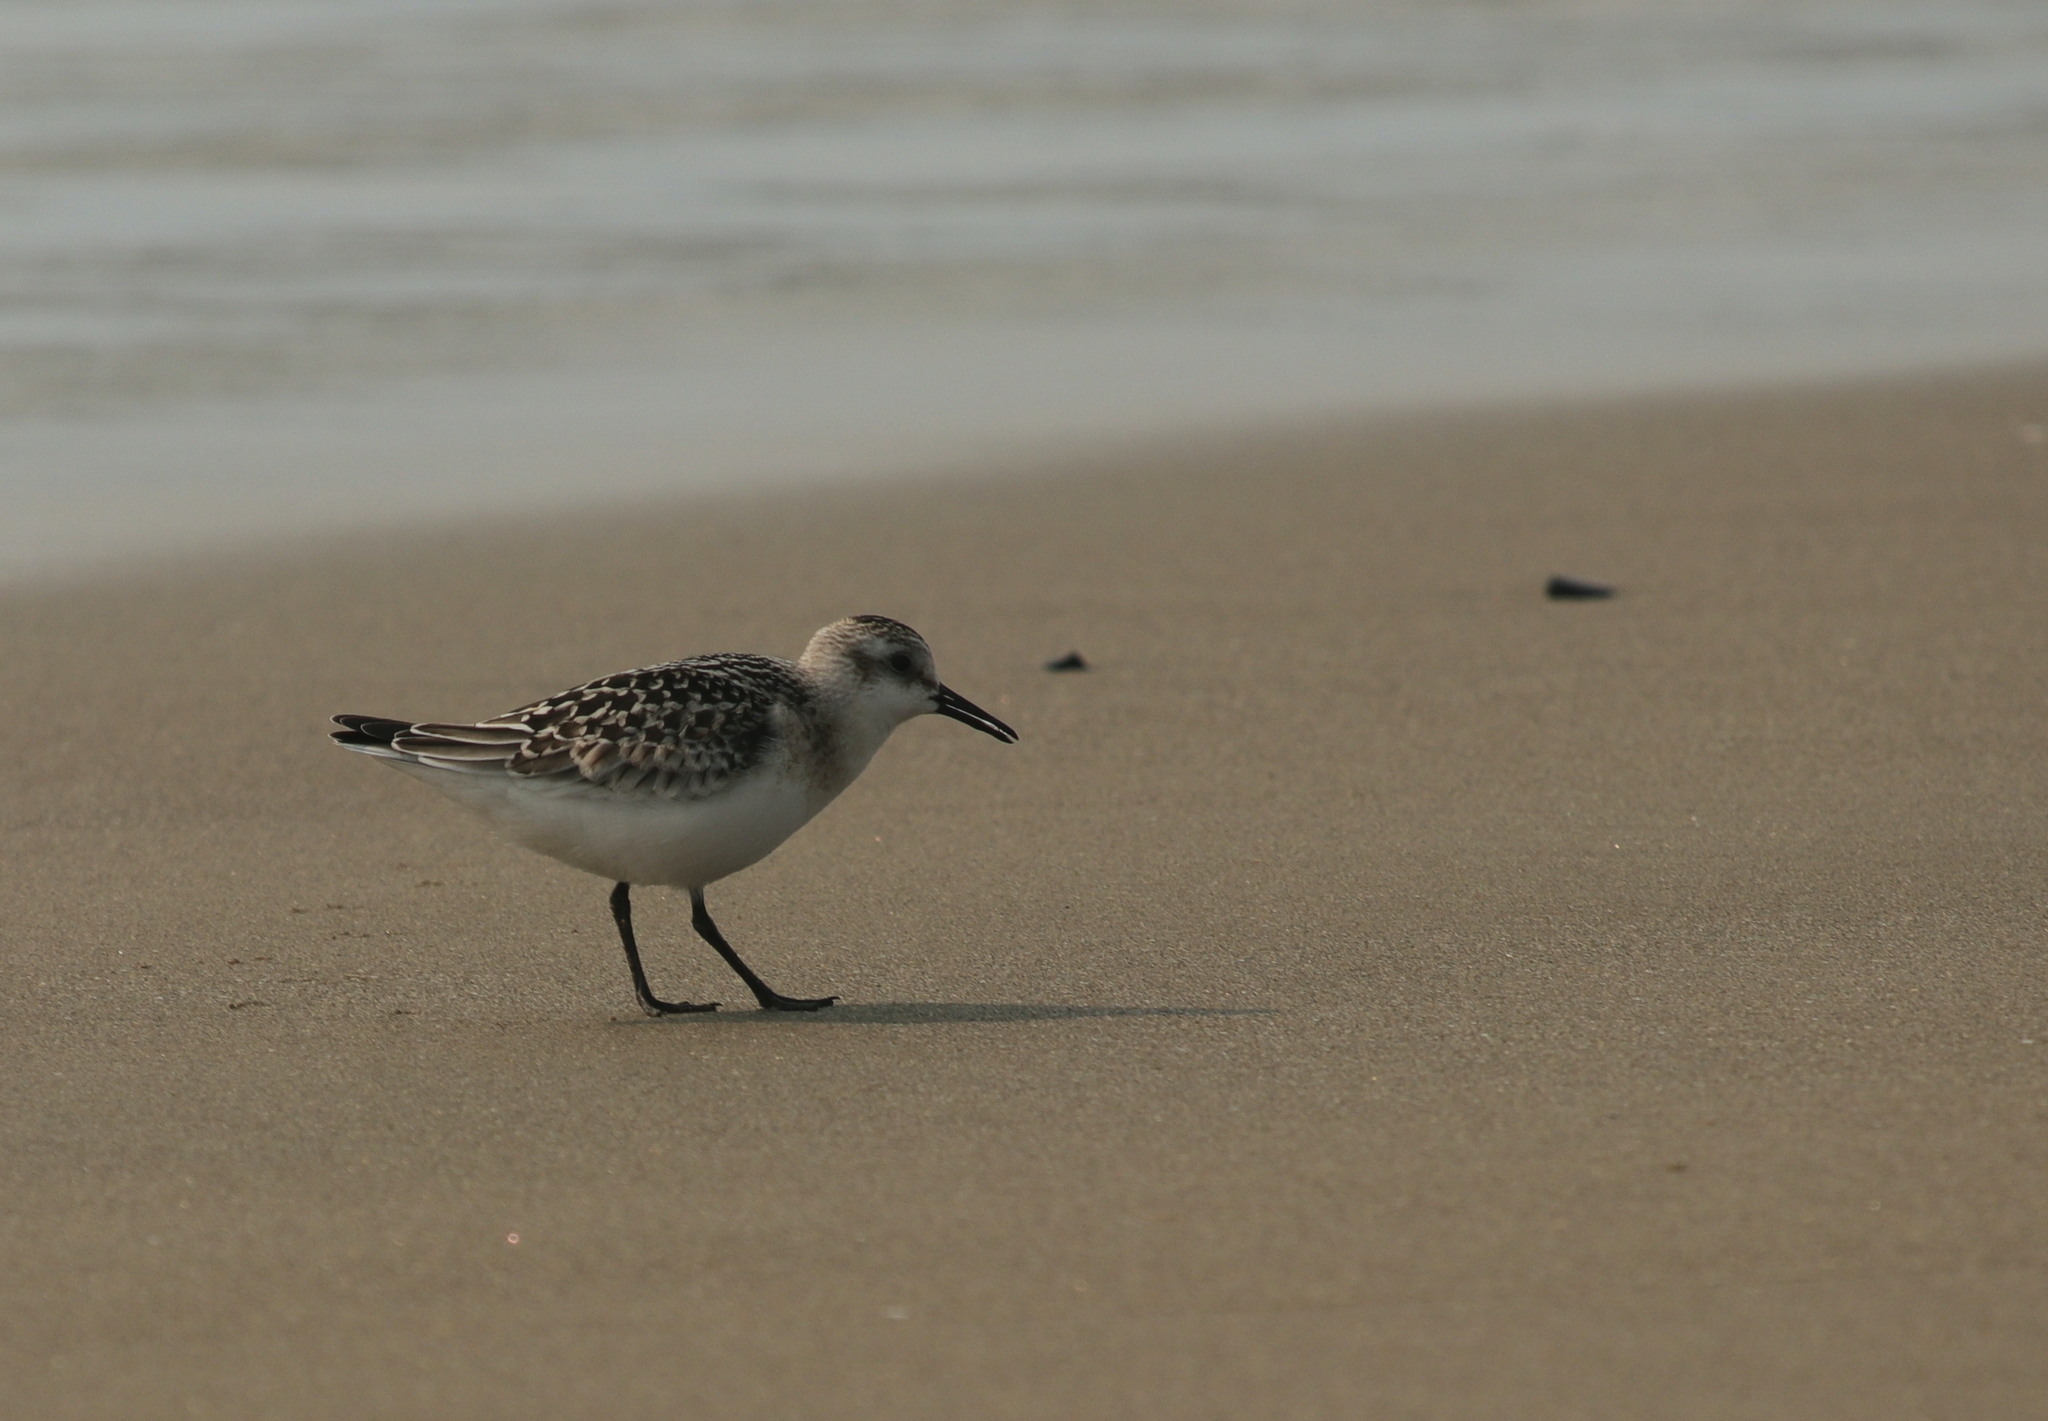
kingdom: Animalia
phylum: Chordata
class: Aves
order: Charadriiformes
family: Scolopacidae
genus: Calidris
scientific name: Calidris alba
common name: Sanderling
